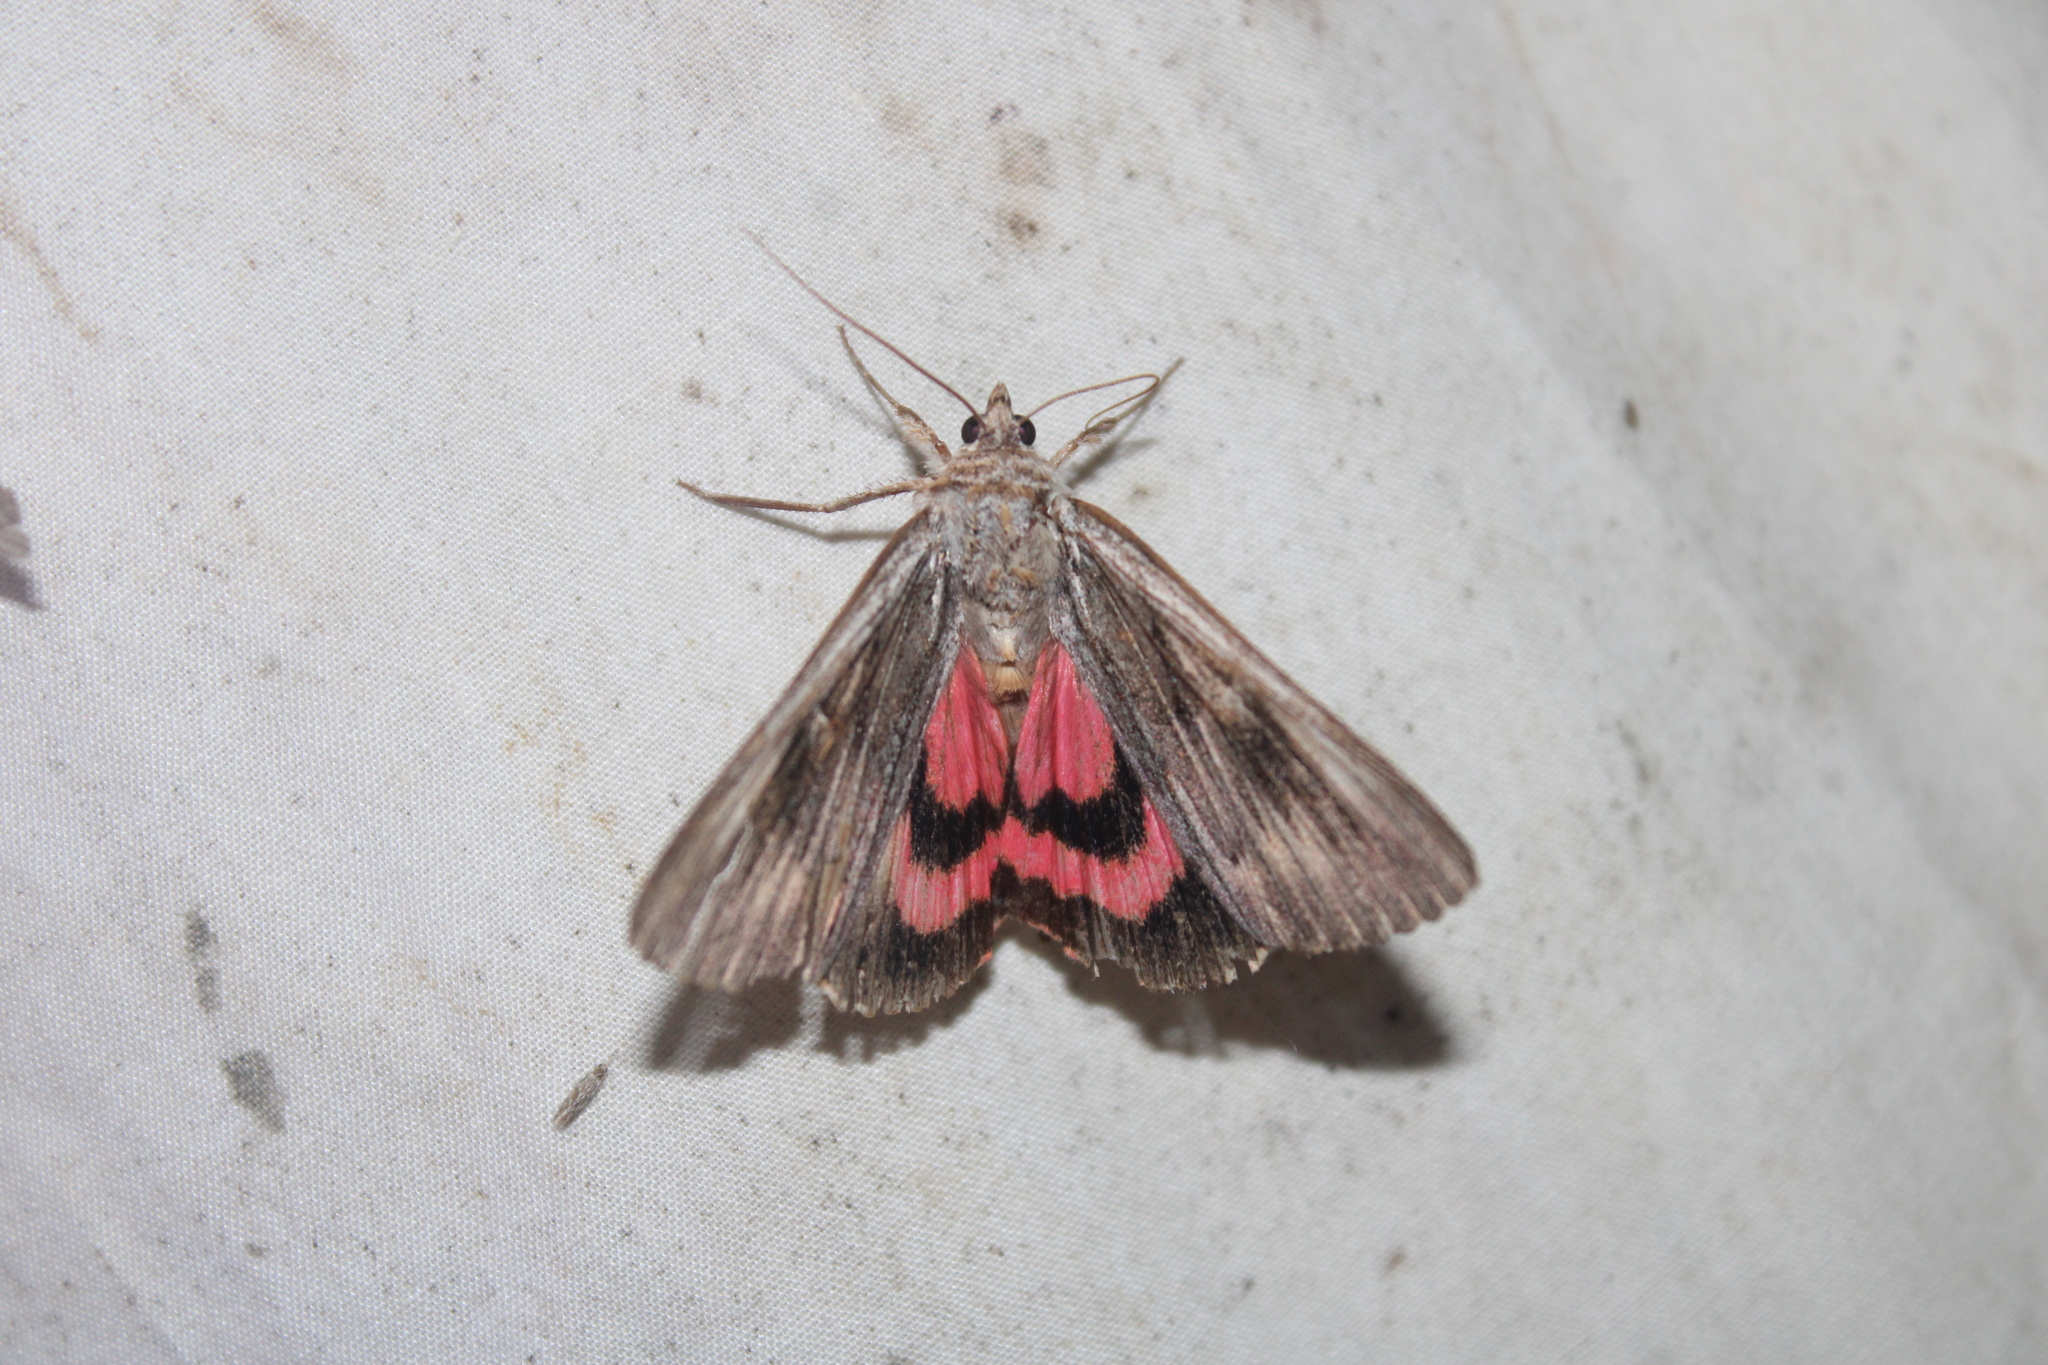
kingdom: Animalia
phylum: Arthropoda
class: Insecta
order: Lepidoptera
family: Erebidae
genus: Catocala
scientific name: Catocala herodias
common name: Pine barrens underwing
